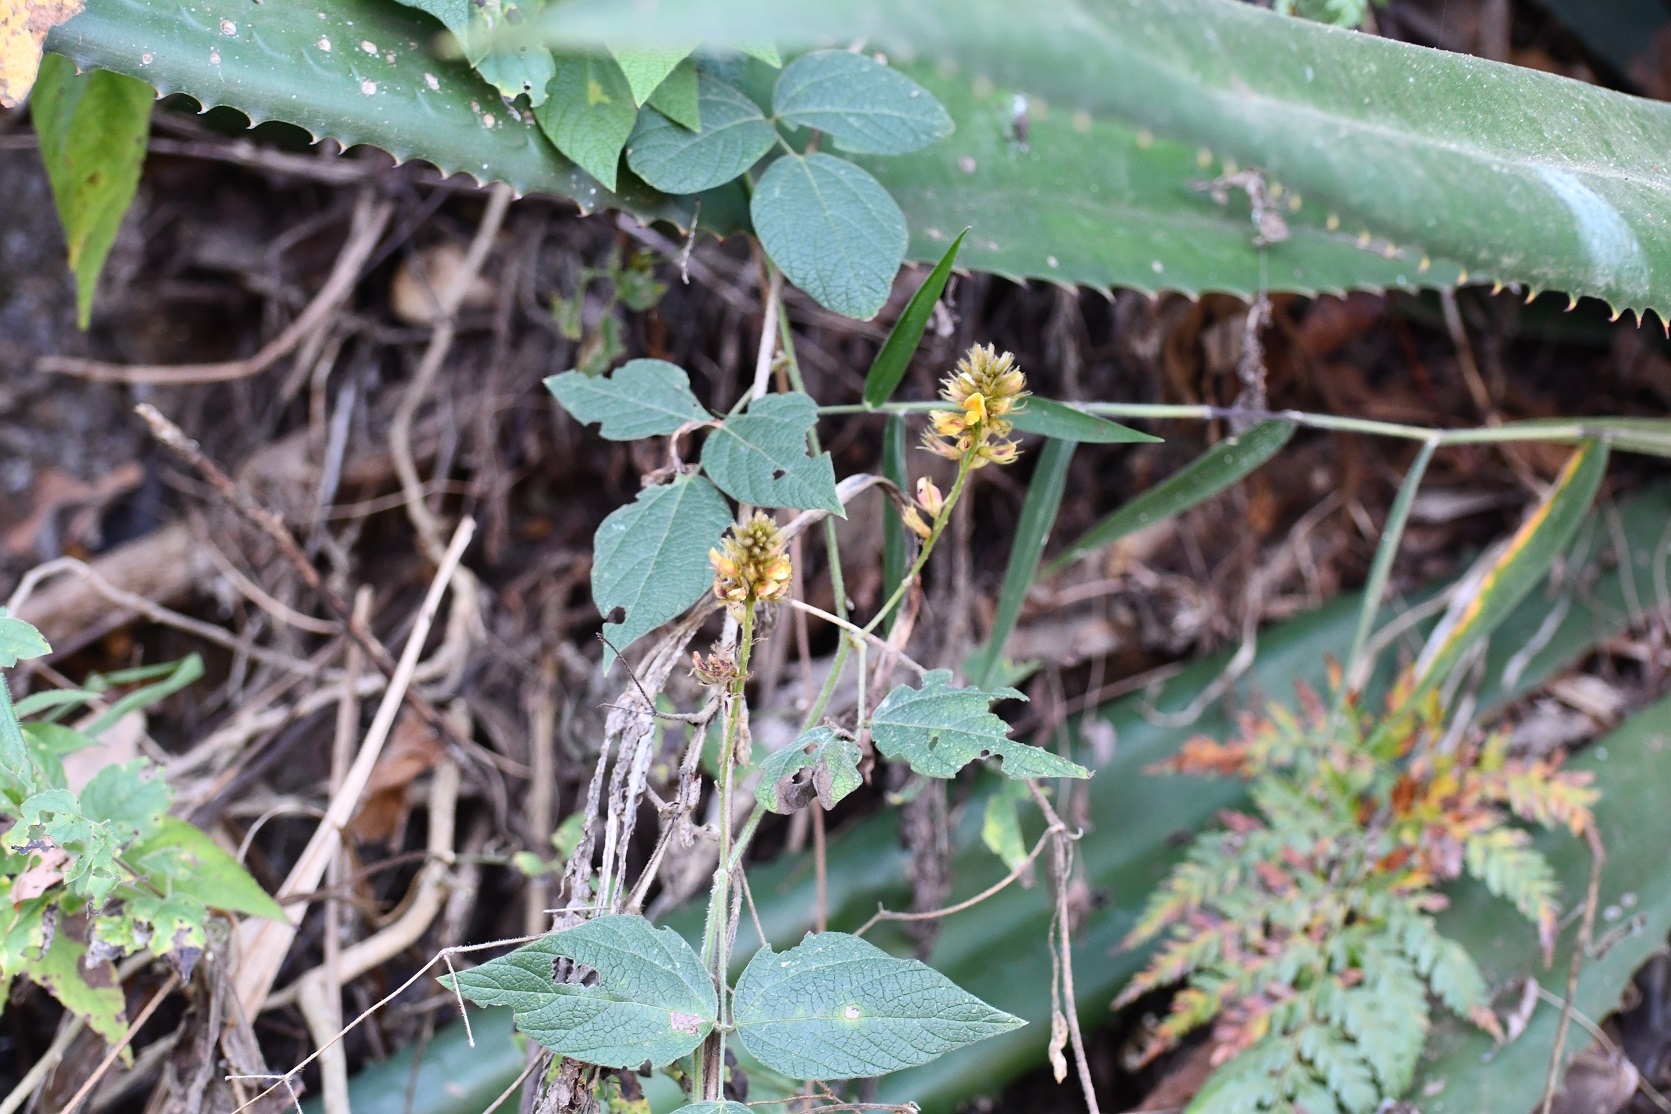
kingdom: Plantae
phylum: Tracheophyta
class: Magnoliopsida
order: Fabales
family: Fabaceae
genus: Rhynchosia
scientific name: Rhynchosia longeracemosa
